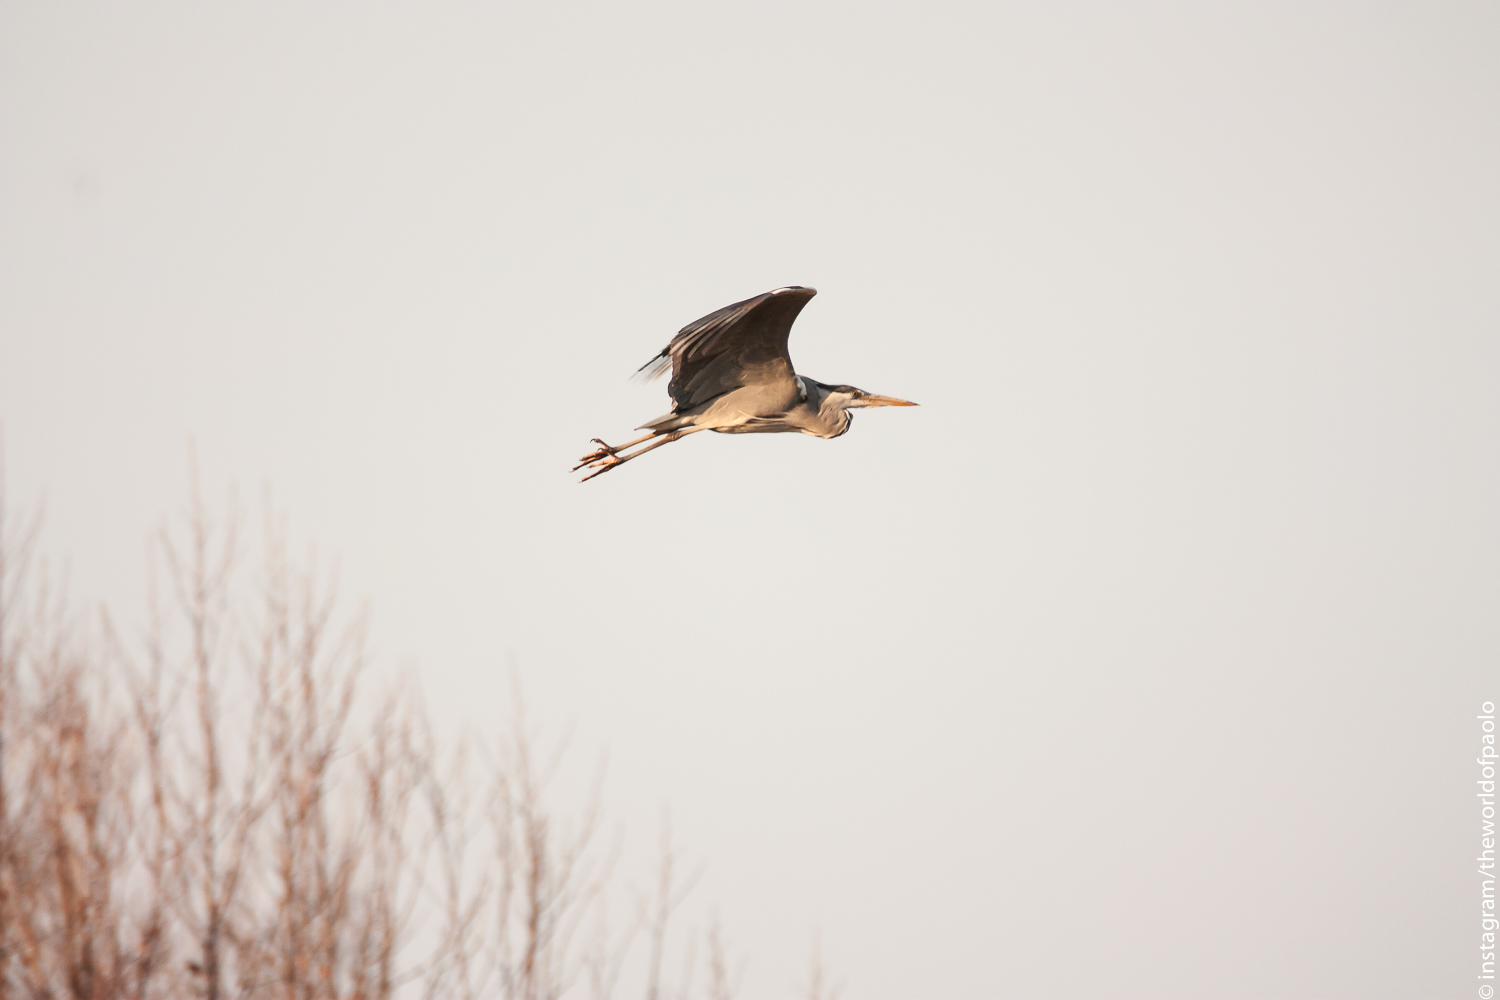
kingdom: Animalia
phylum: Chordata
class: Aves
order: Pelecaniformes
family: Ardeidae
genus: Ardea
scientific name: Ardea cinerea
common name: Grey heron
